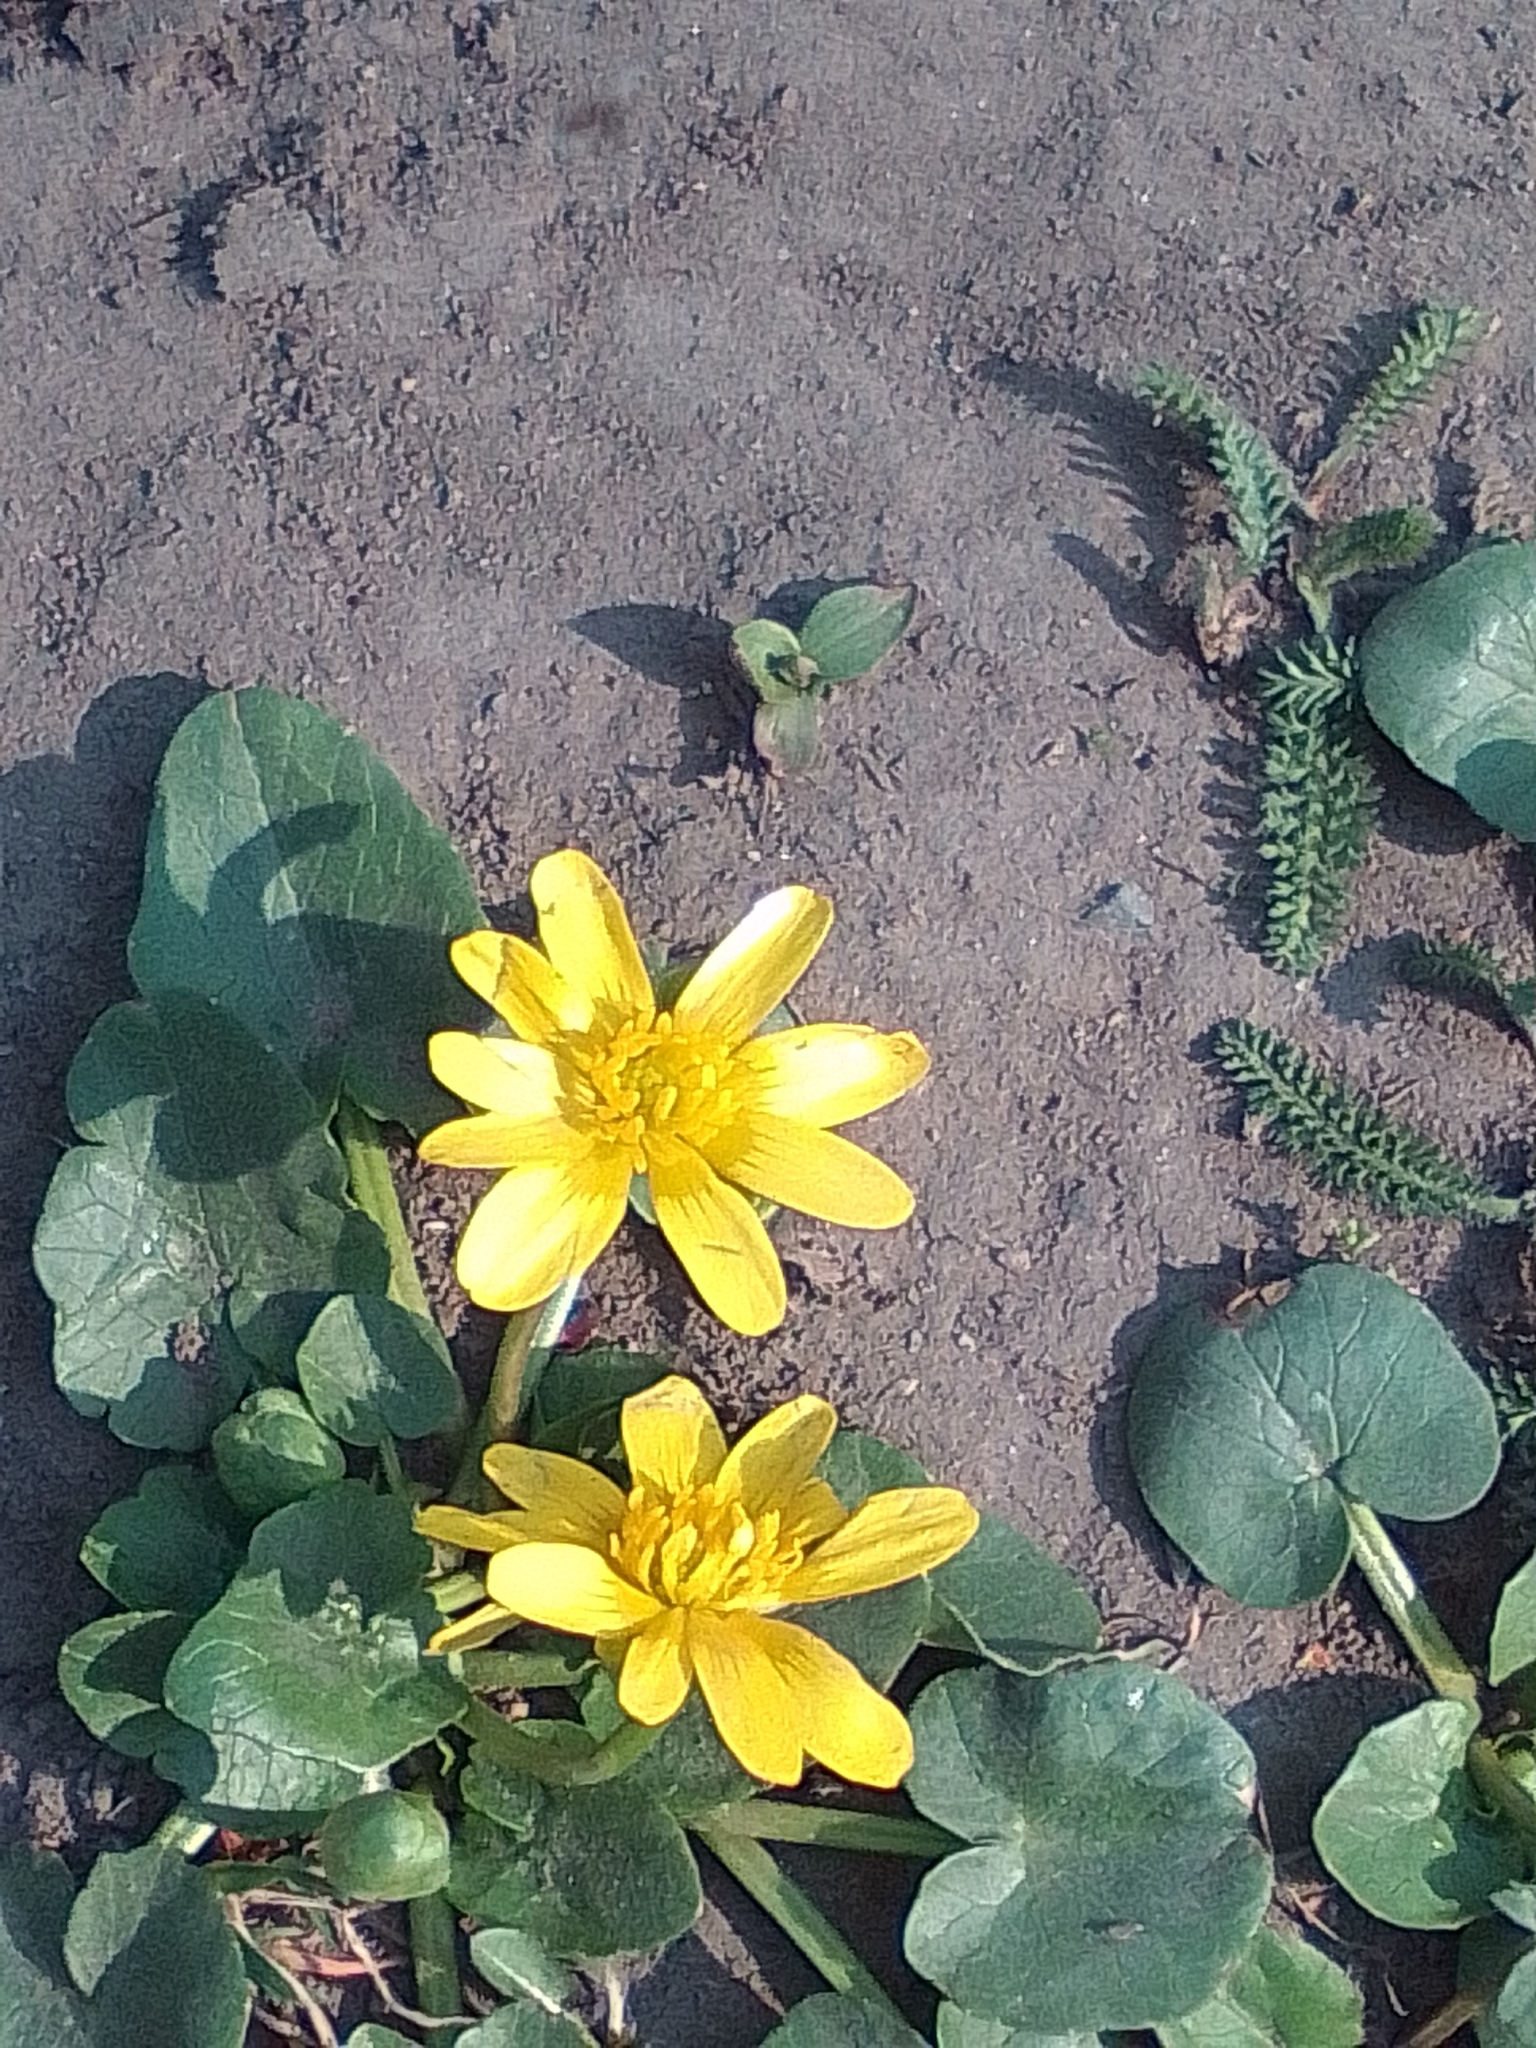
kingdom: Plantae
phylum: Tracheophyta
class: Magnoliopsida
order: Ranunculales
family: Ranunculaceae
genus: Ficaria
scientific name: Ficaria verna
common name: Lesser celandine
